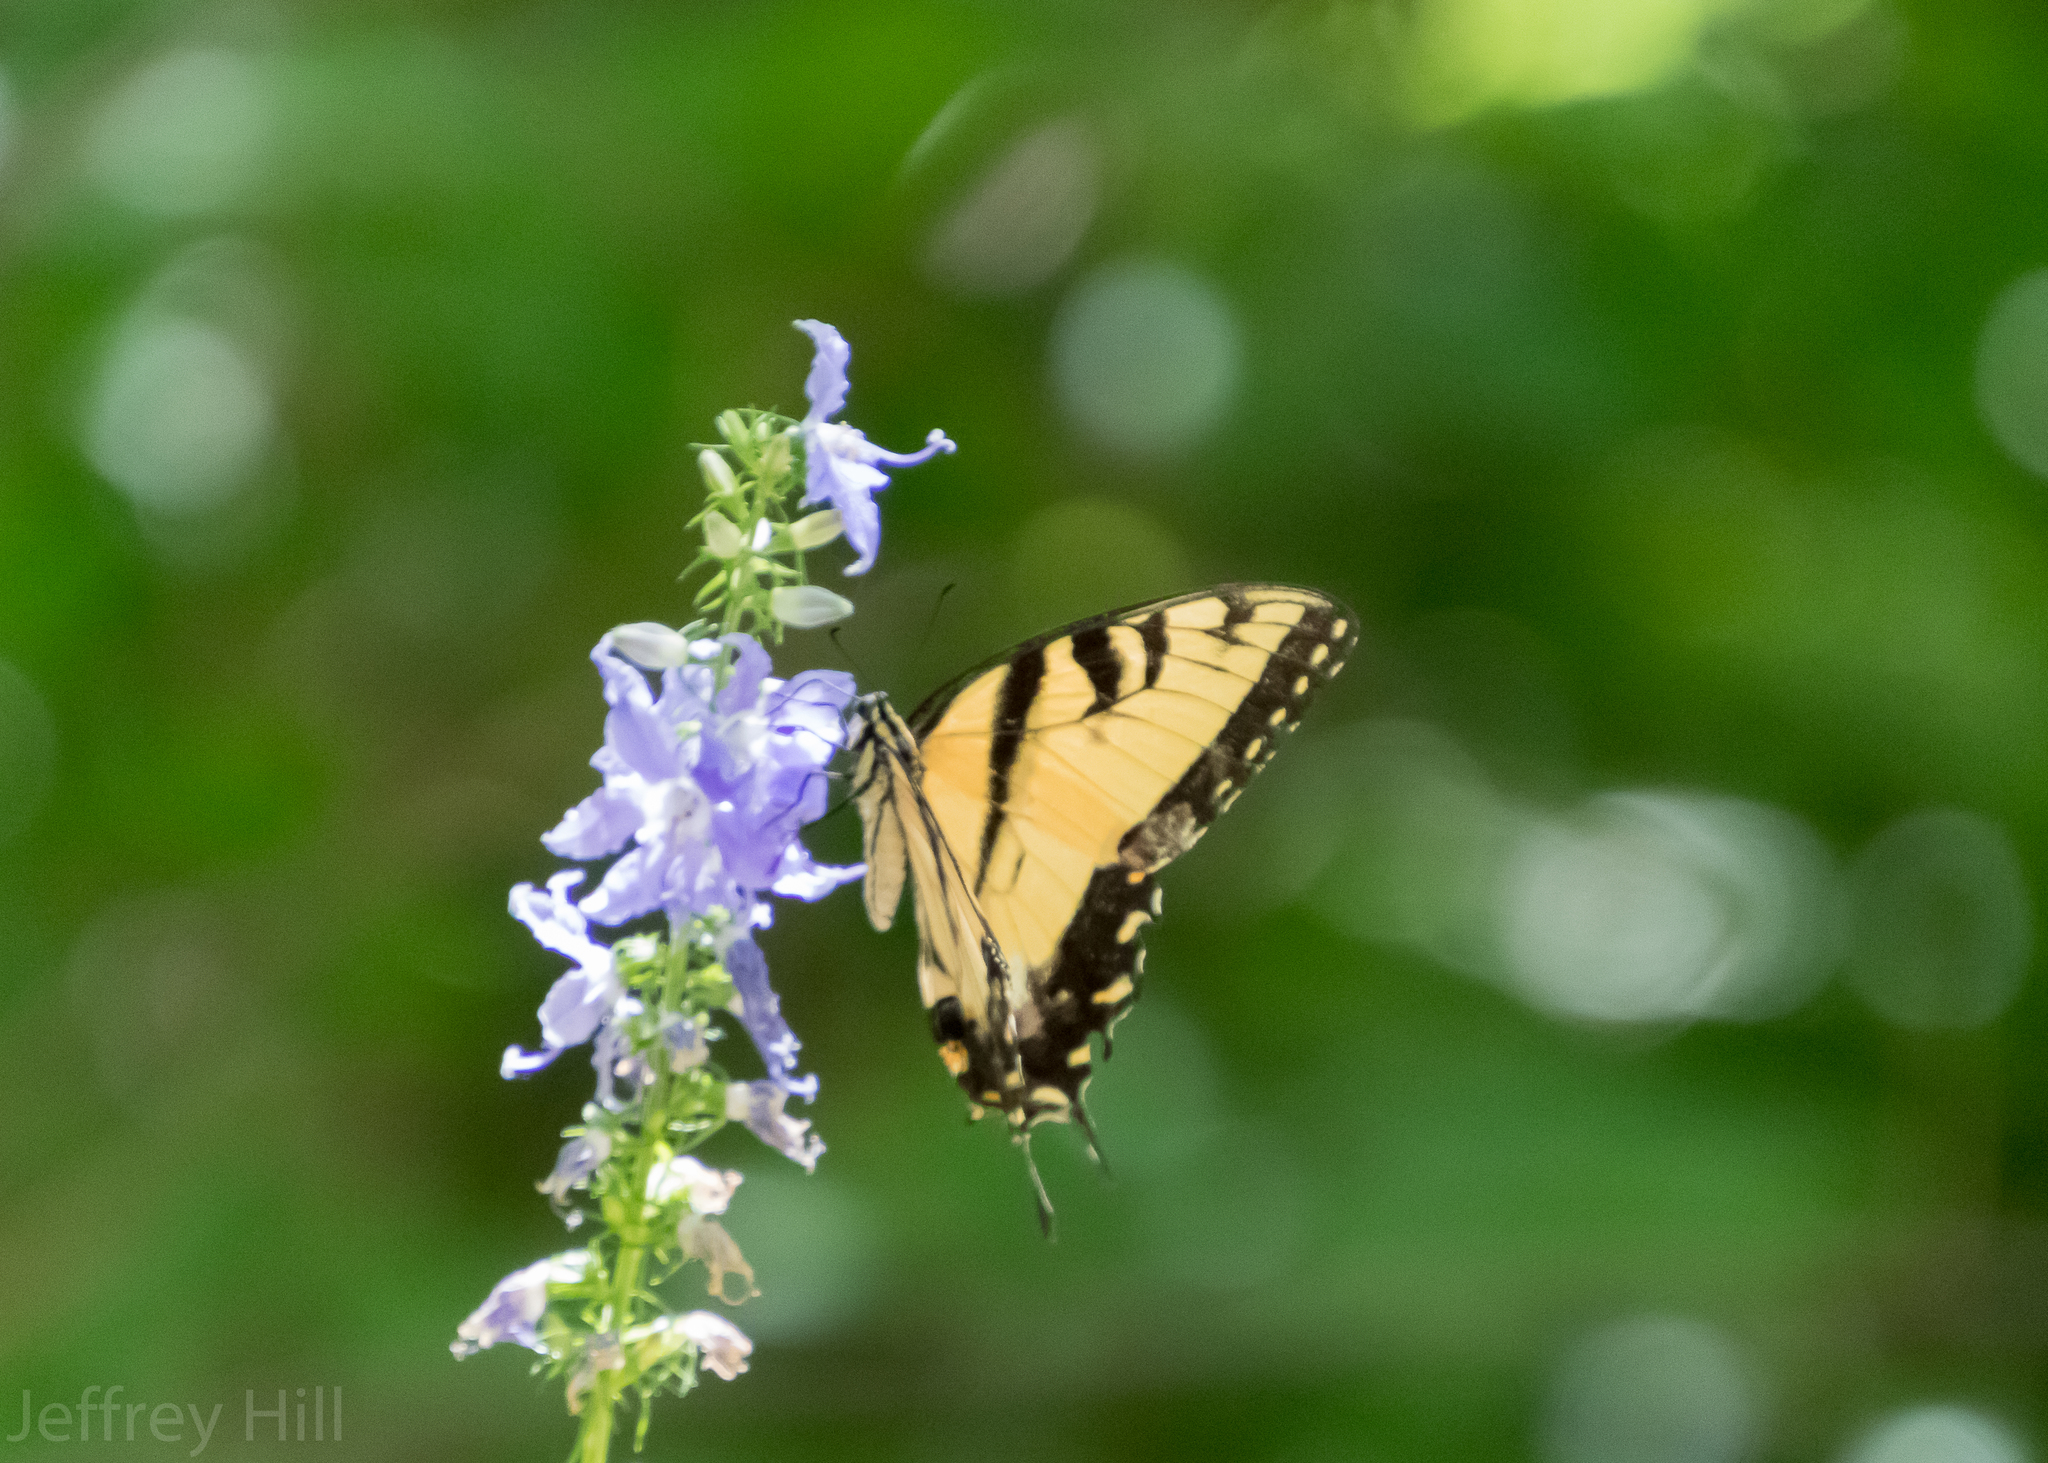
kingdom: Animalia
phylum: Arthropoda
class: Insecta
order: Lepidoptera
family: Papilionidae
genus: Papilio
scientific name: Papilio glaucus
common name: Tiger swallowtail
